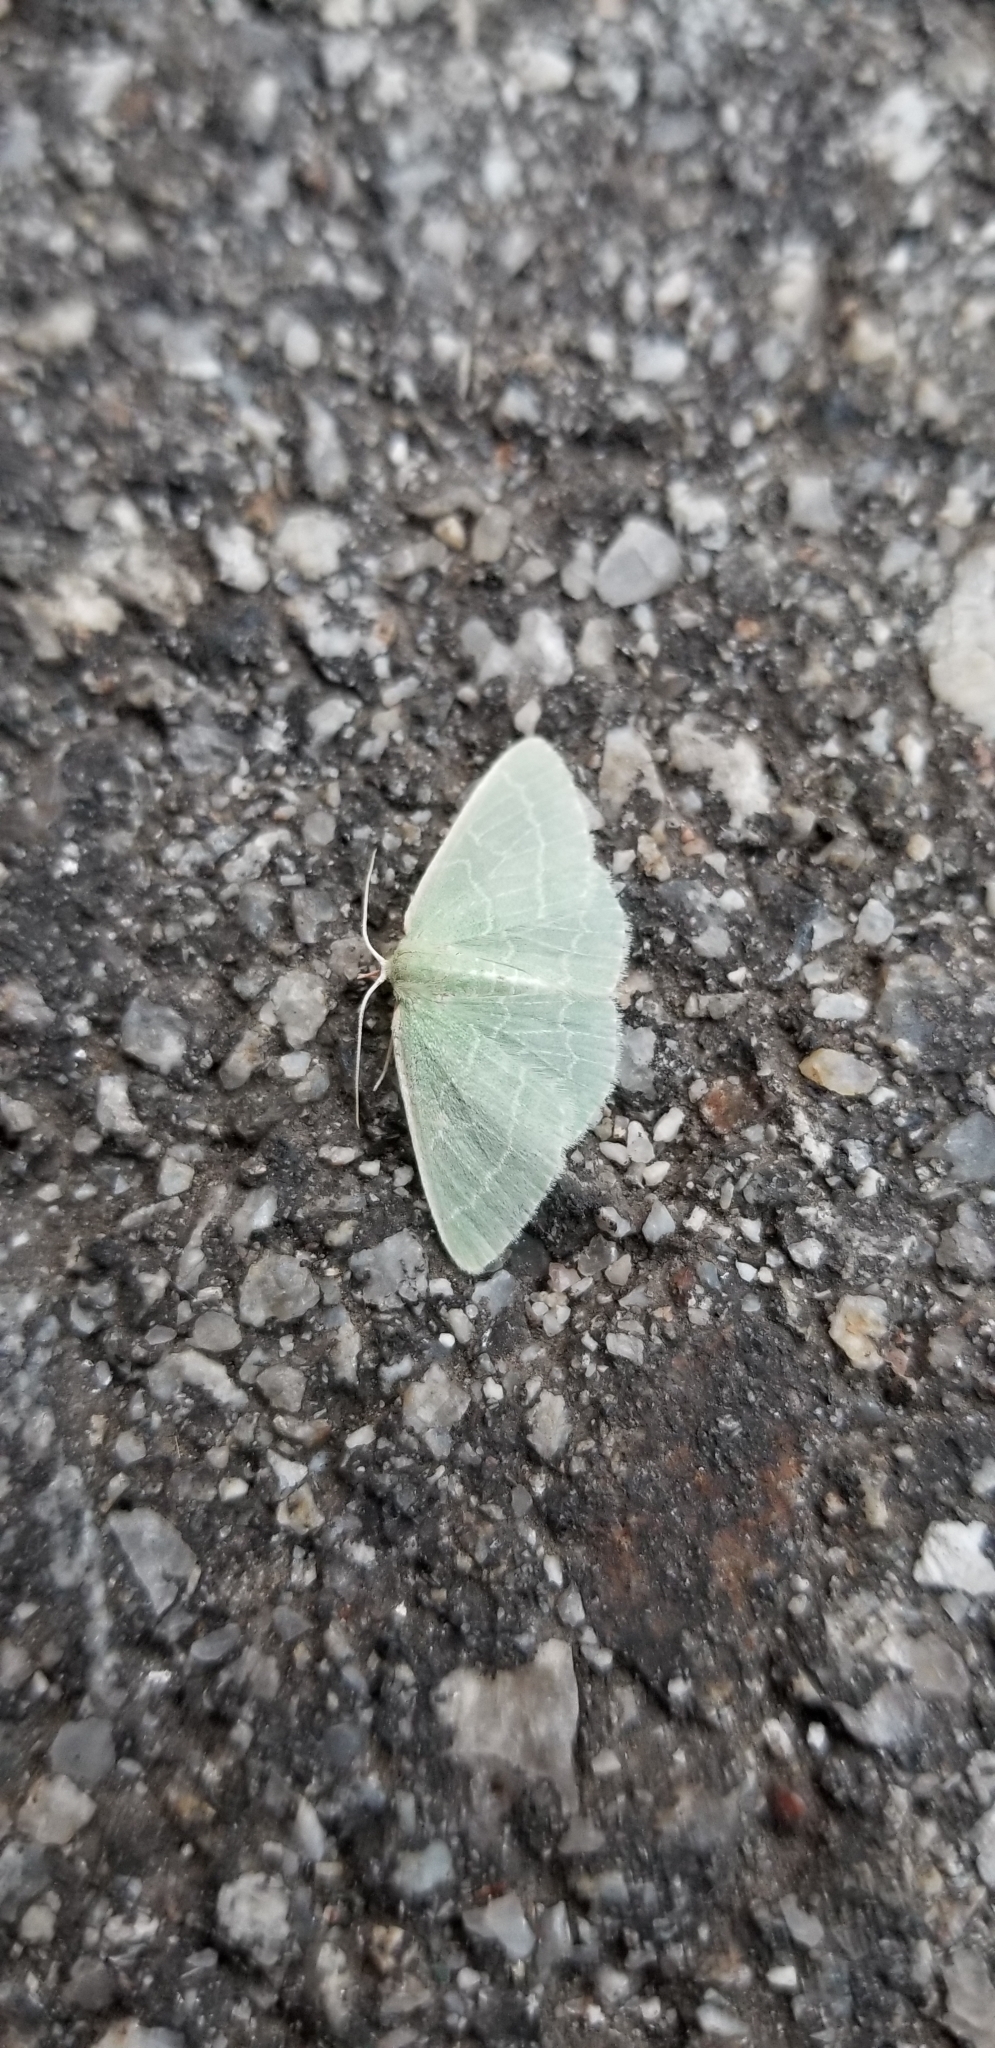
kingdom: Animalia
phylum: Arthropoda
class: Insecta
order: Lepidoptera
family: Geometridae
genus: Synchlora
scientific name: Synchlora aerata
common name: Wavy-lined emerald
